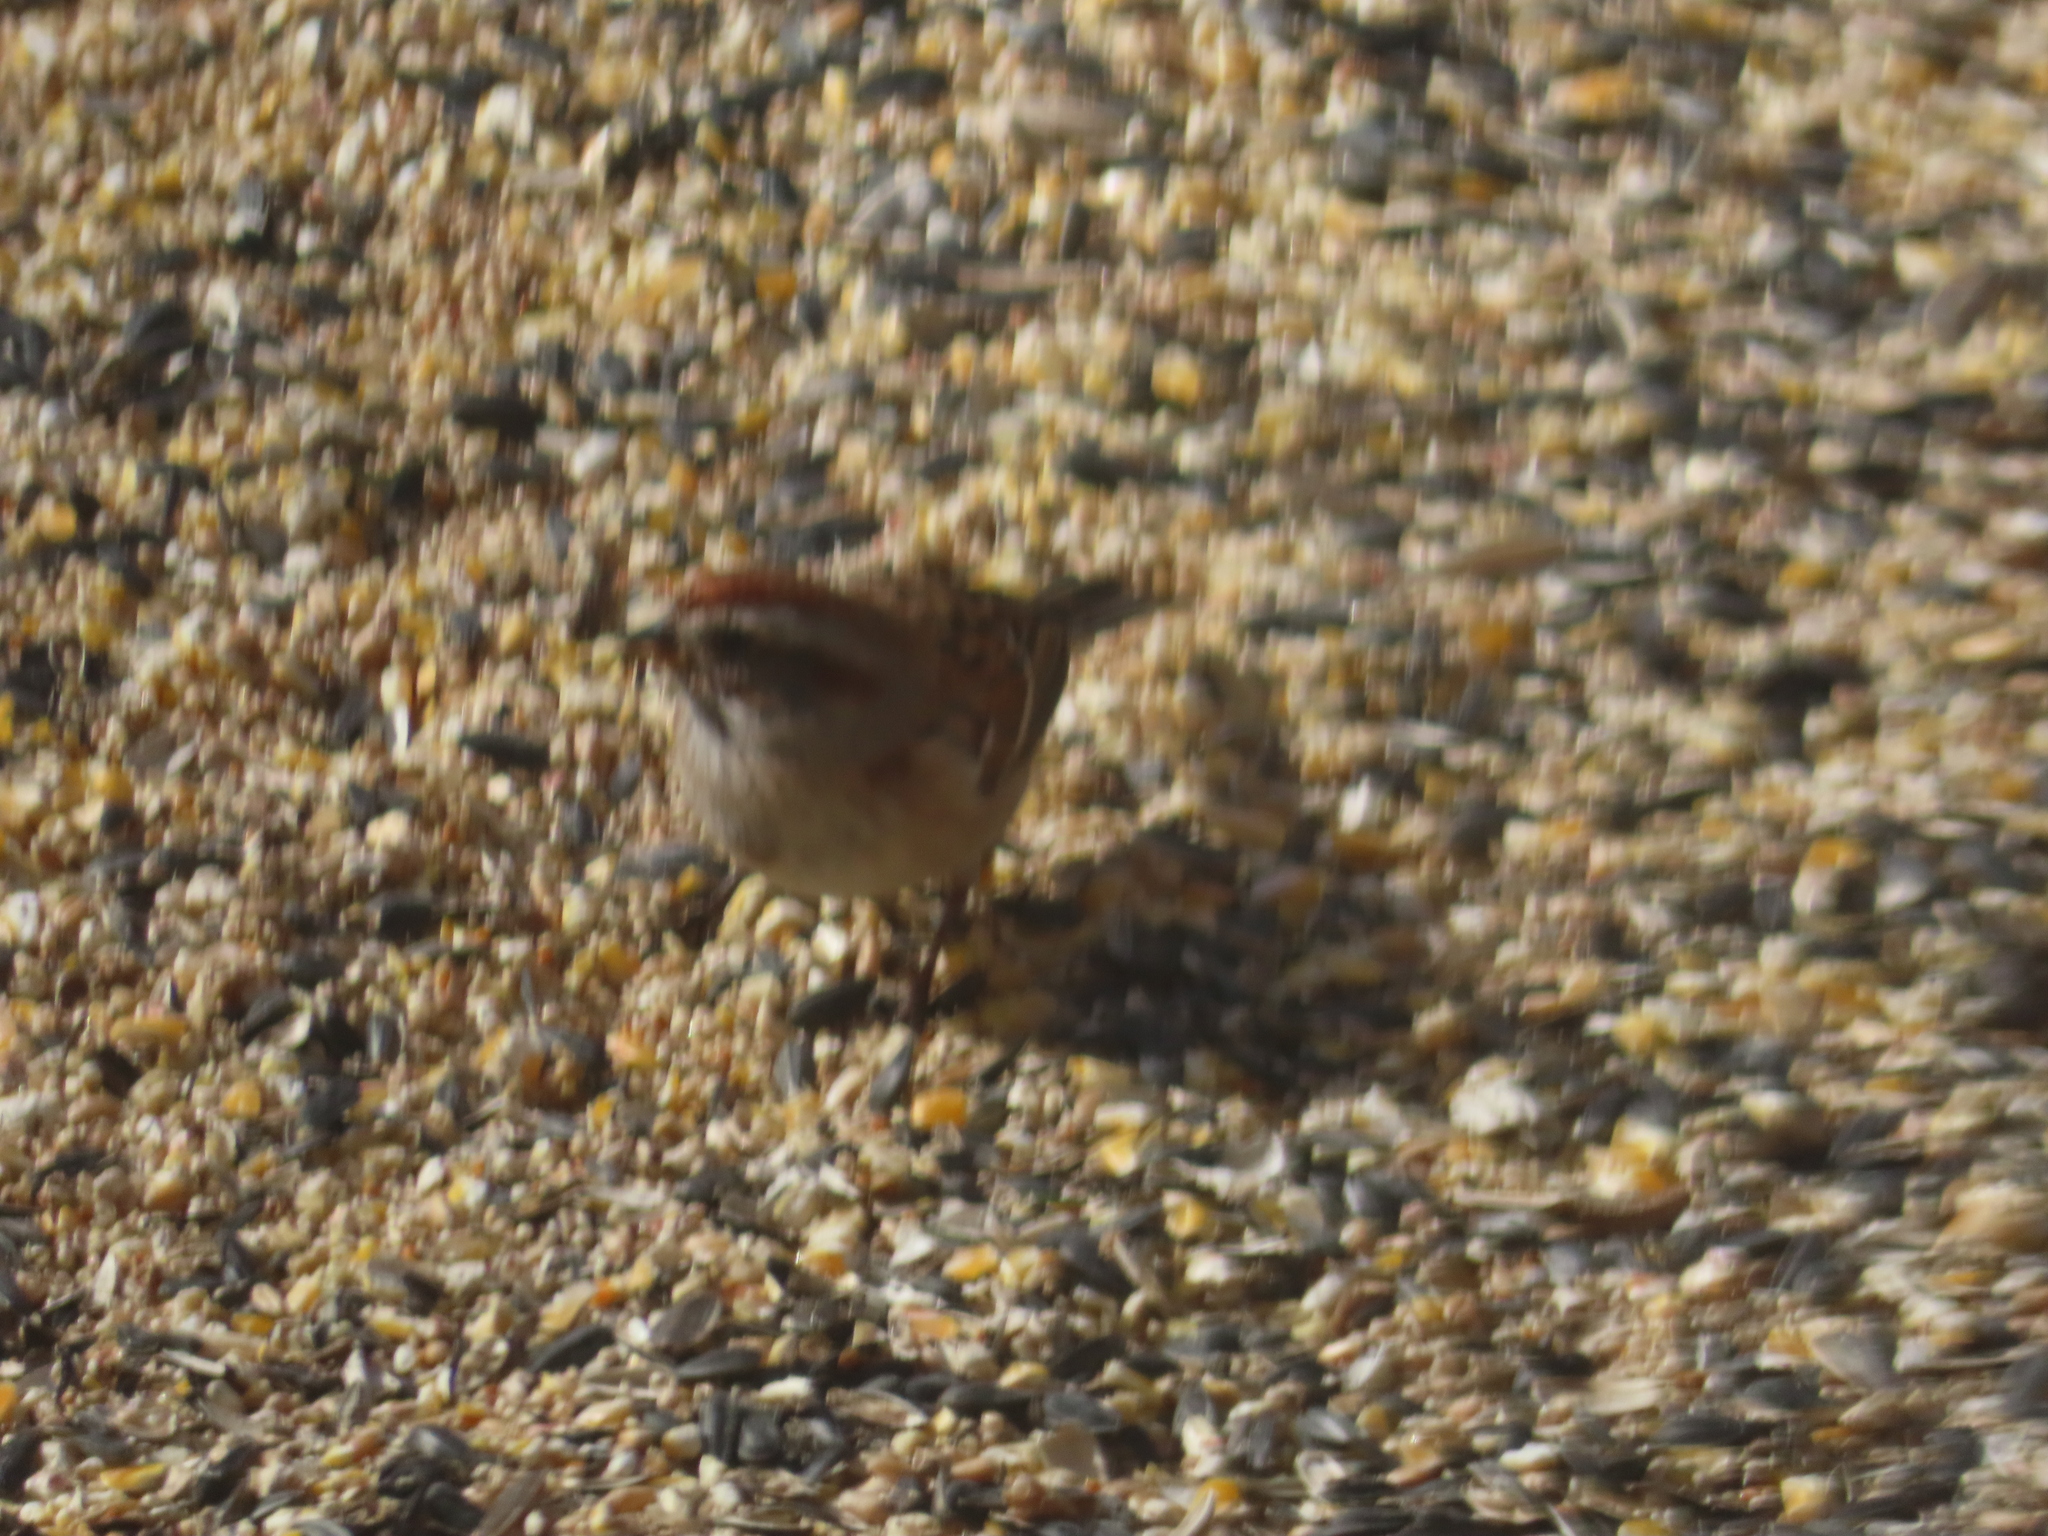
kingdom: Animalia
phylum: Chordata
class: Aves
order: Passeriformes
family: Passerellidae
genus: Spizelloides
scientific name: Spizelloides arborea
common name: American tree sparrow
